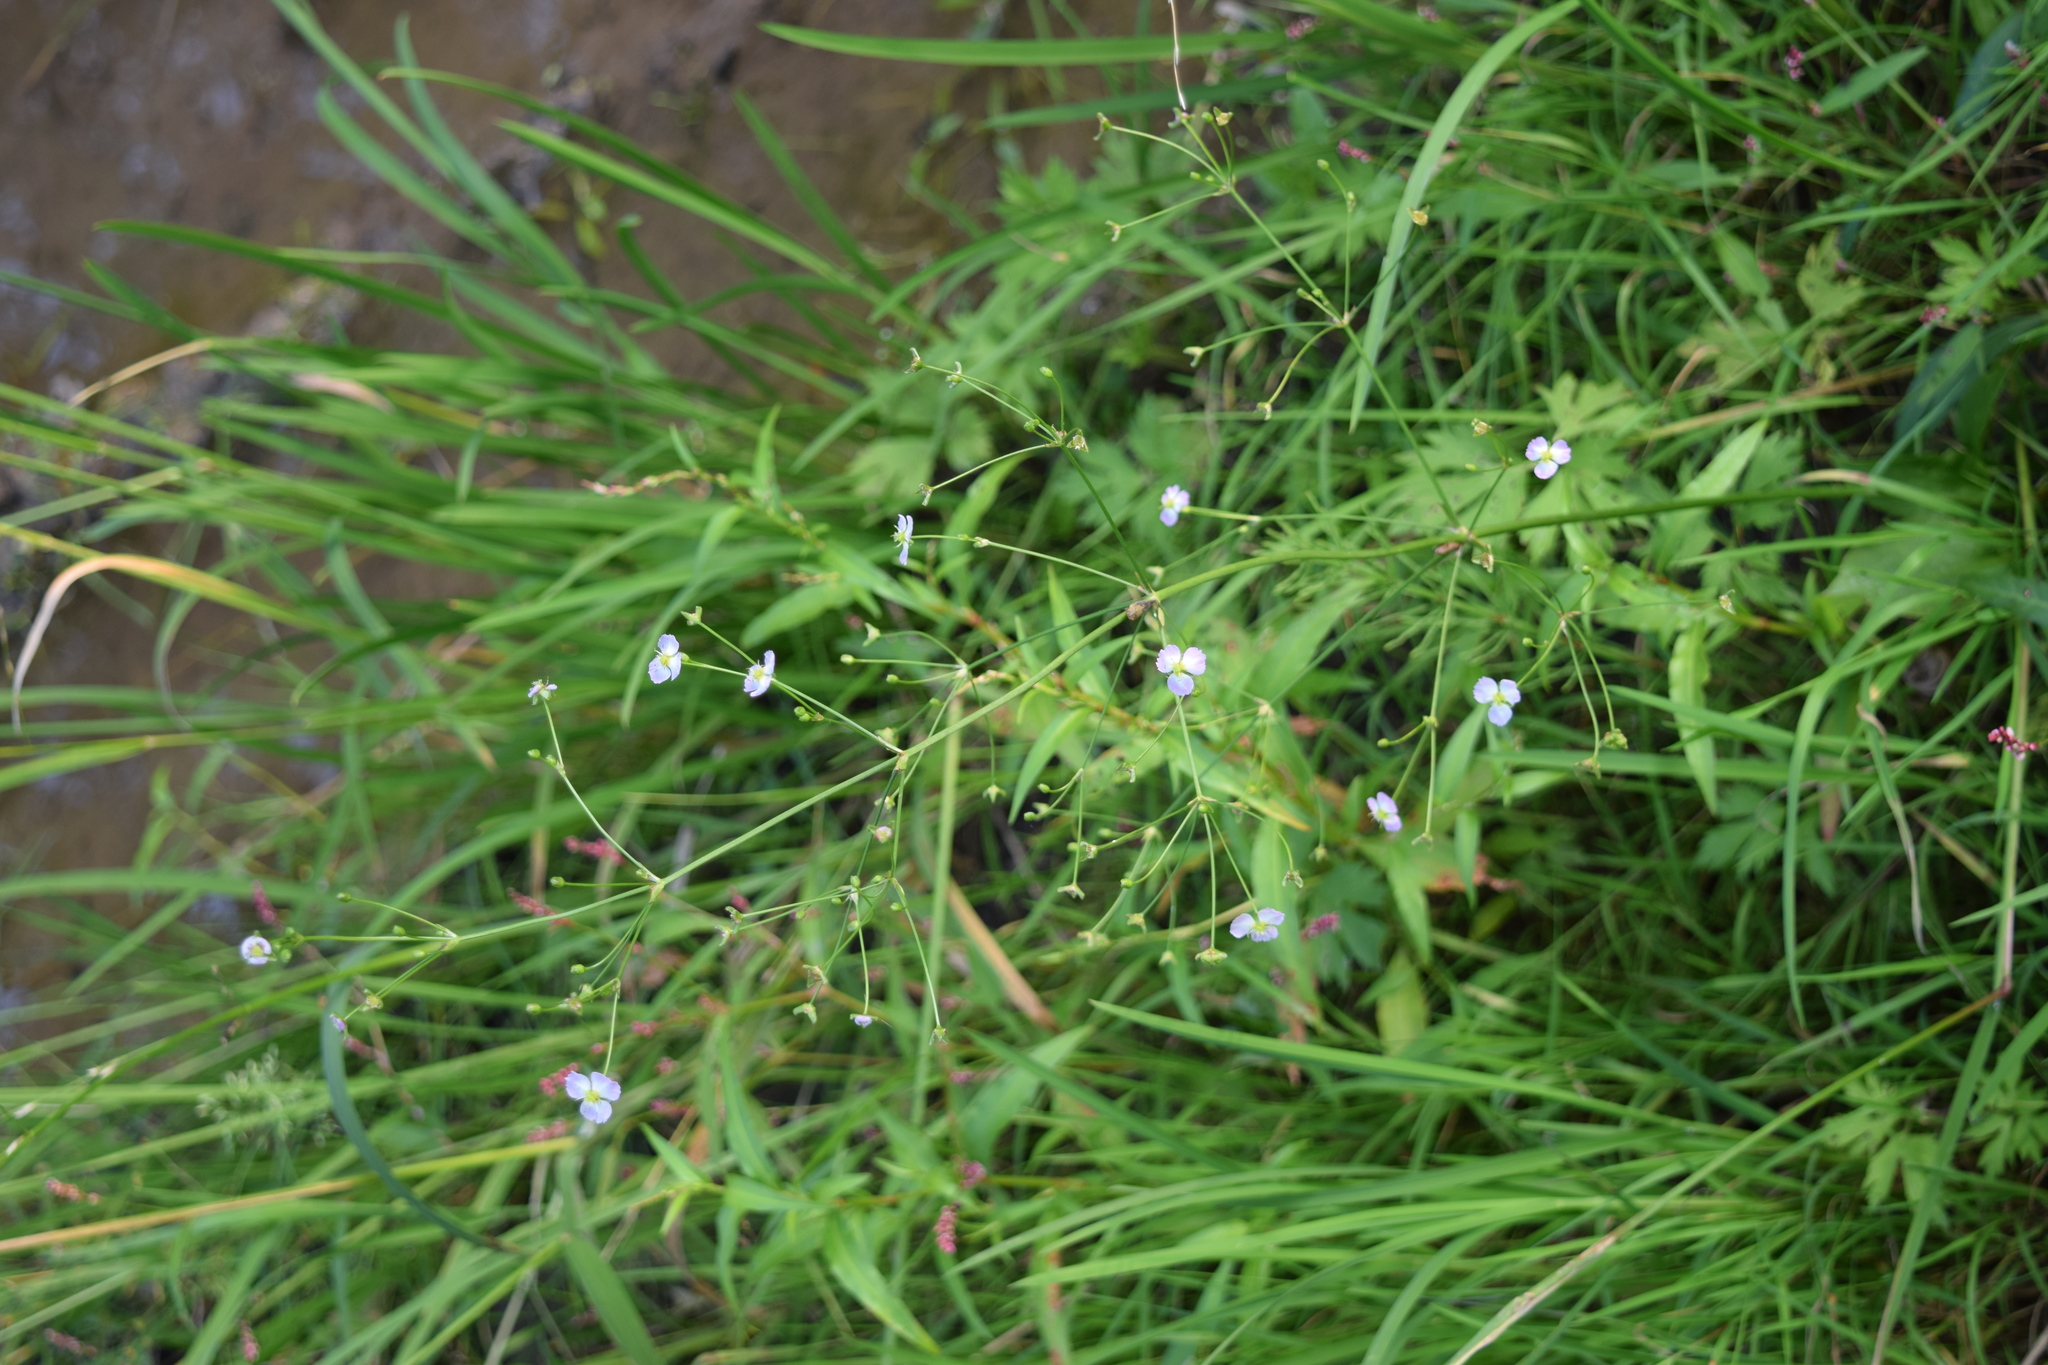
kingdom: Plantae
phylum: Tracheophyta
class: Liliopsida
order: Alismatales
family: Alismataceae
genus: Alisma
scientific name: Alisma plantago-aquatica
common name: Water-plantain
